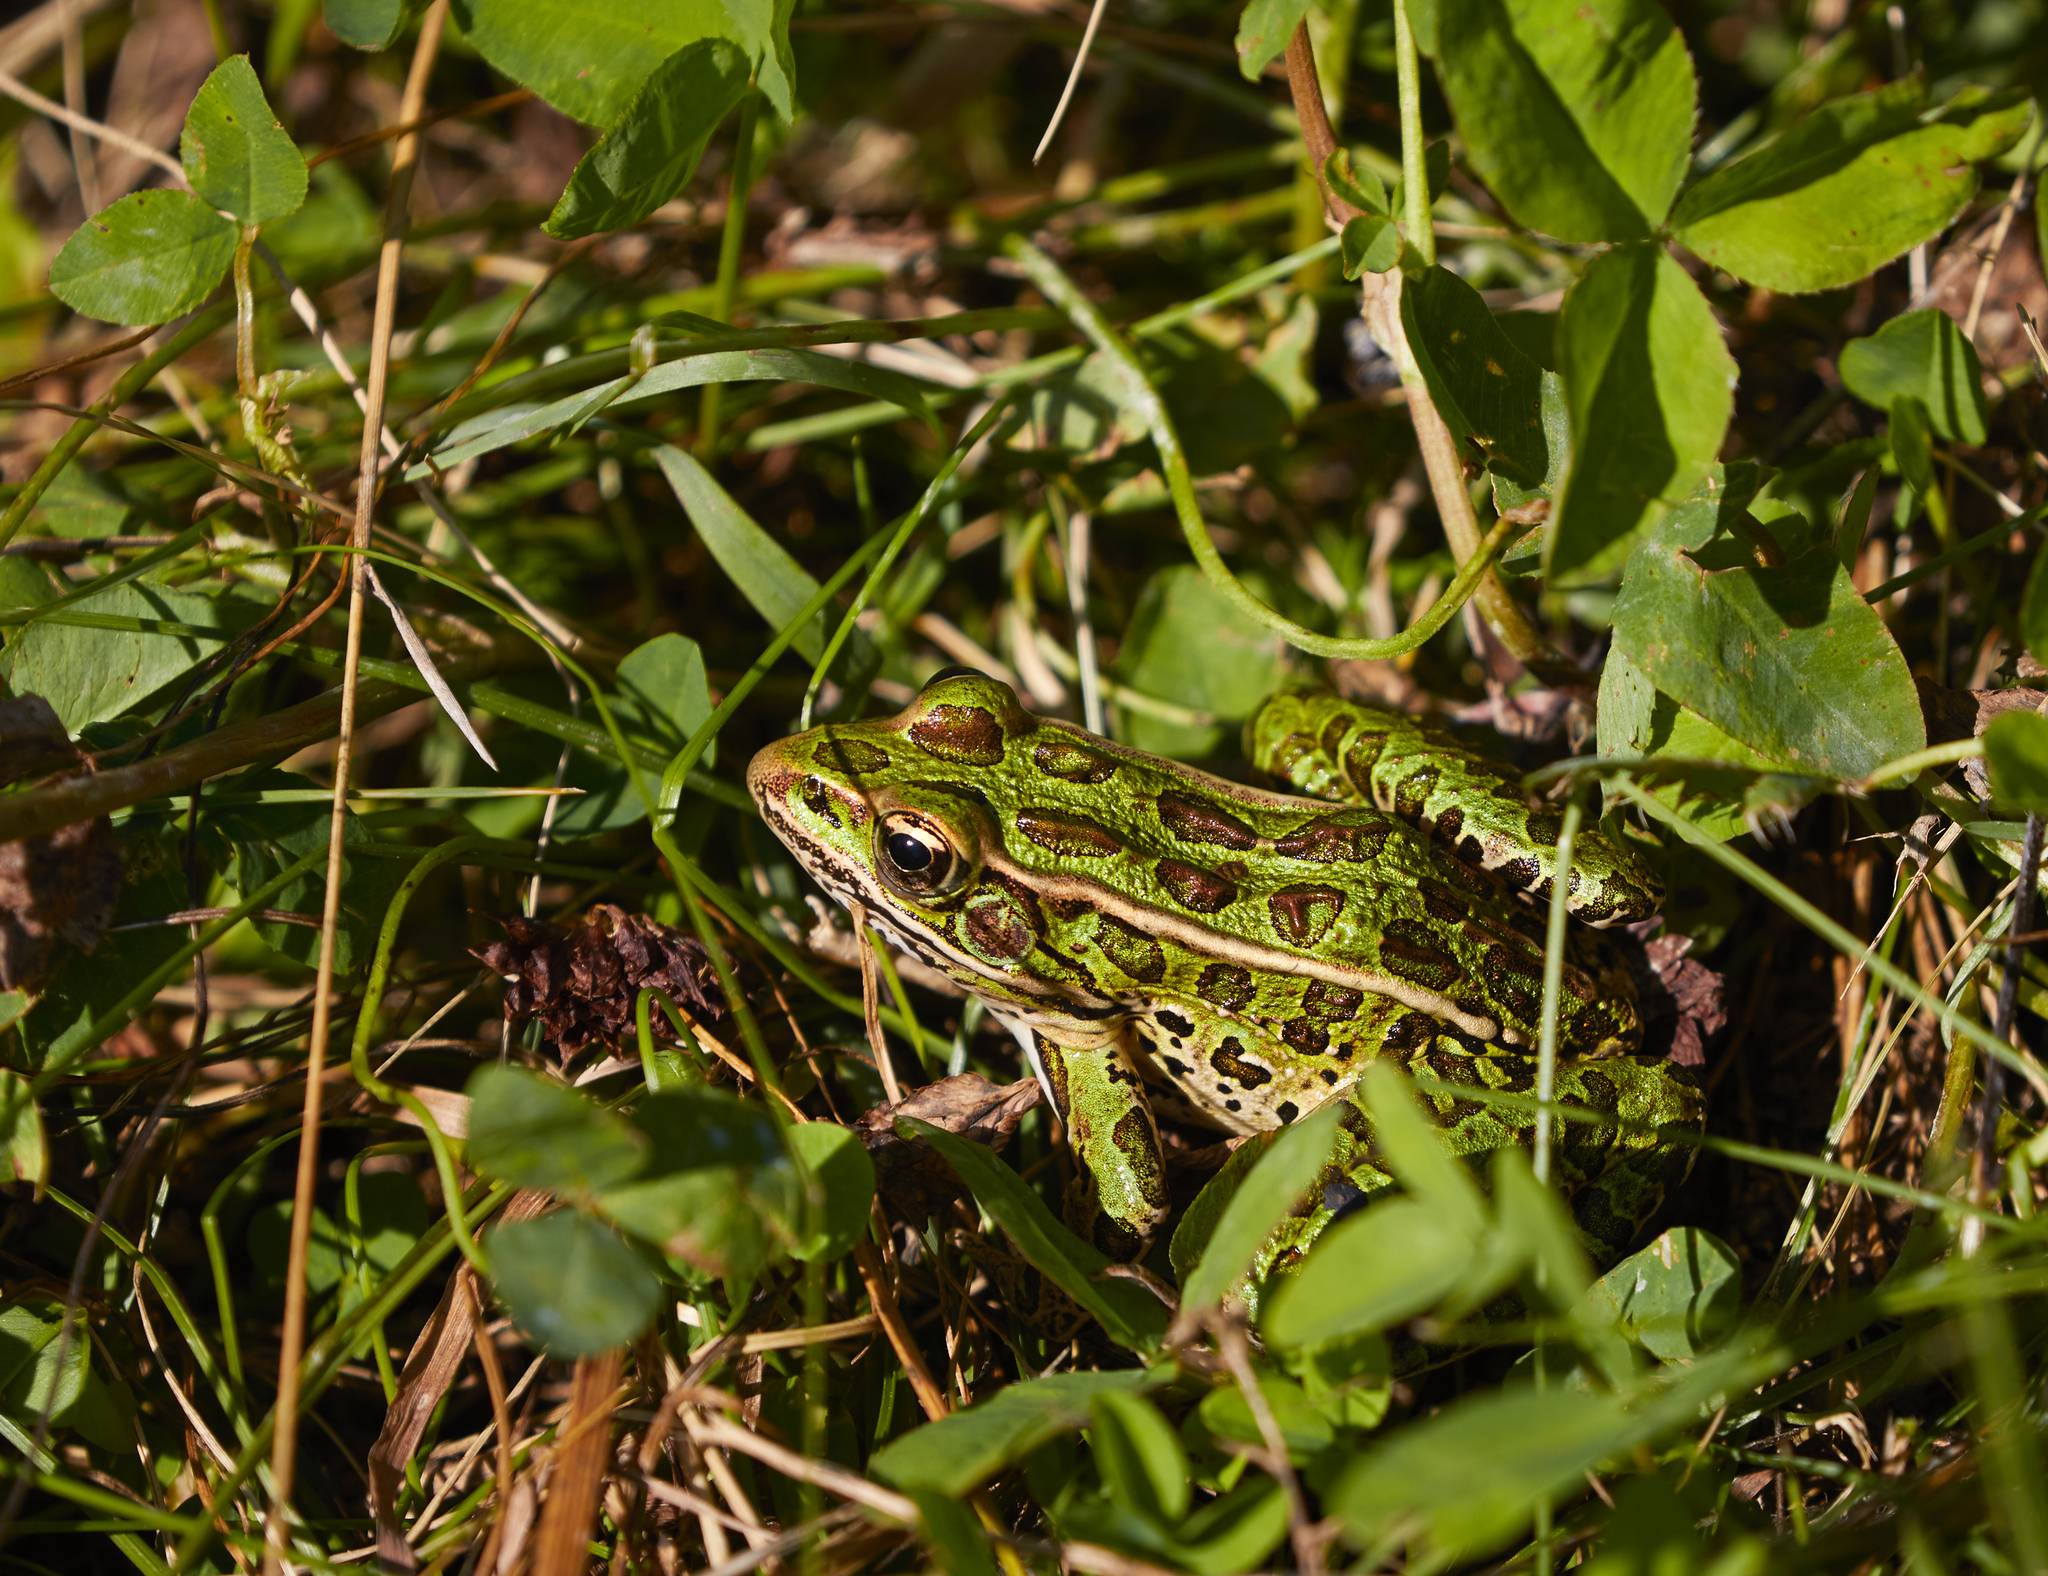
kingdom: Animalia
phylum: Chordata
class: Amphibia
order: Anura
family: Ranidae
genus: Lithobates
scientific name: Lithobates pipiens
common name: Northern leopard frog
